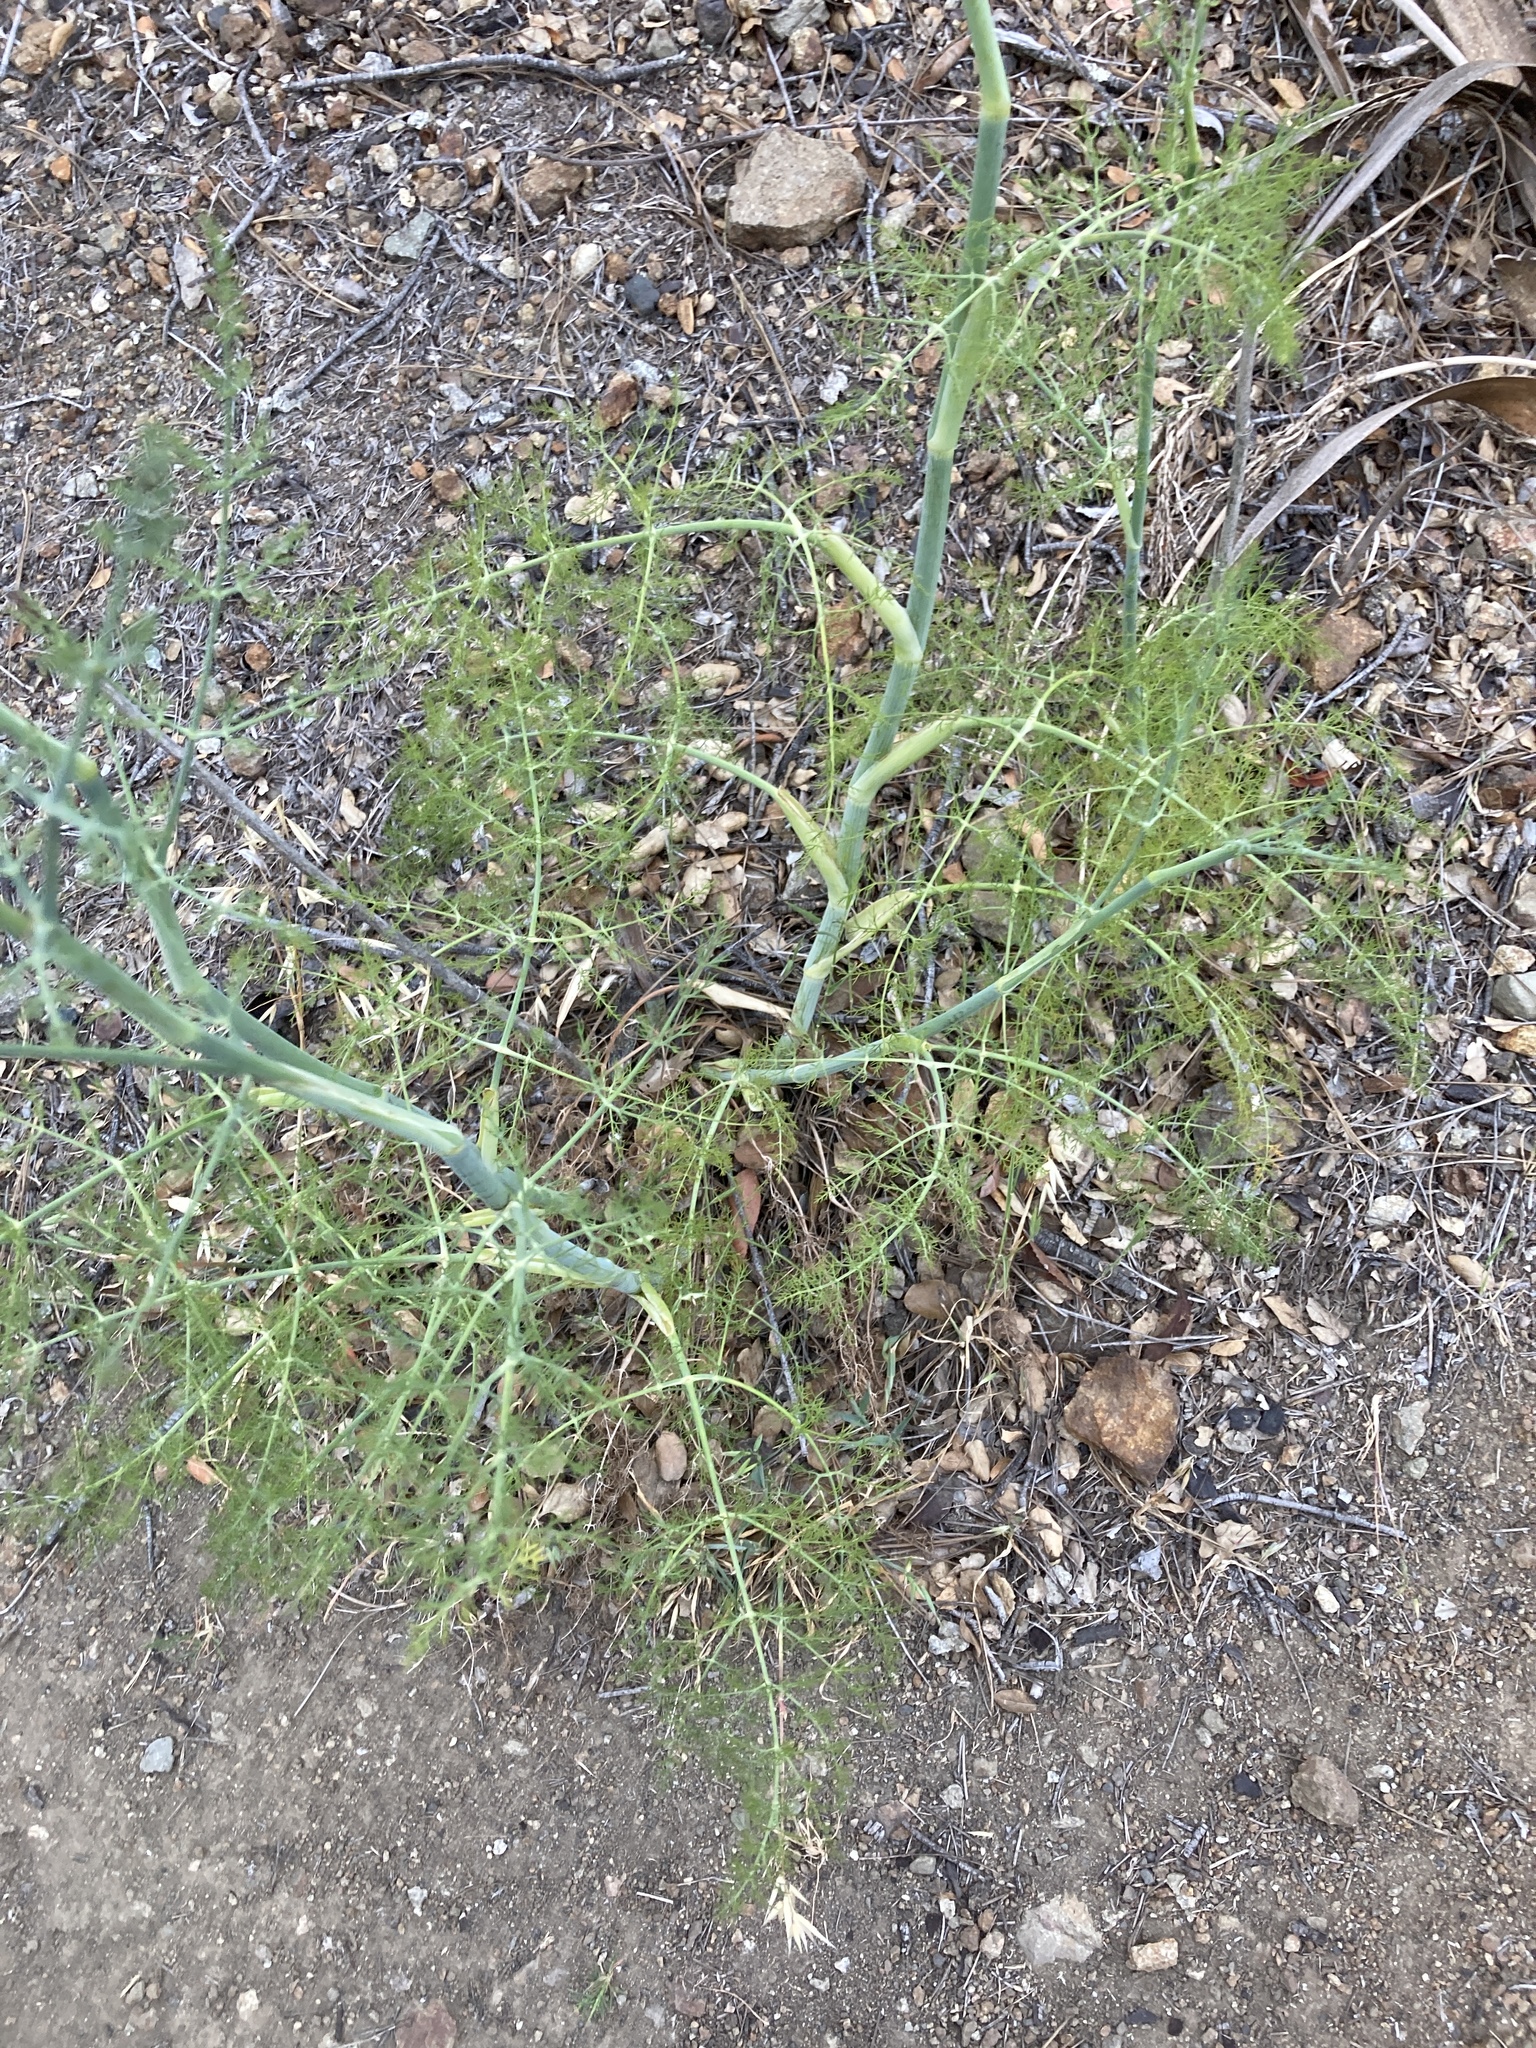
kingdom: Plantae
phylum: Tracheophyta
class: Magnoliopsida
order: Apiales
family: Apiaceae
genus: Foeniculum
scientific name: Foeniculum vulgare
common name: Fennel
